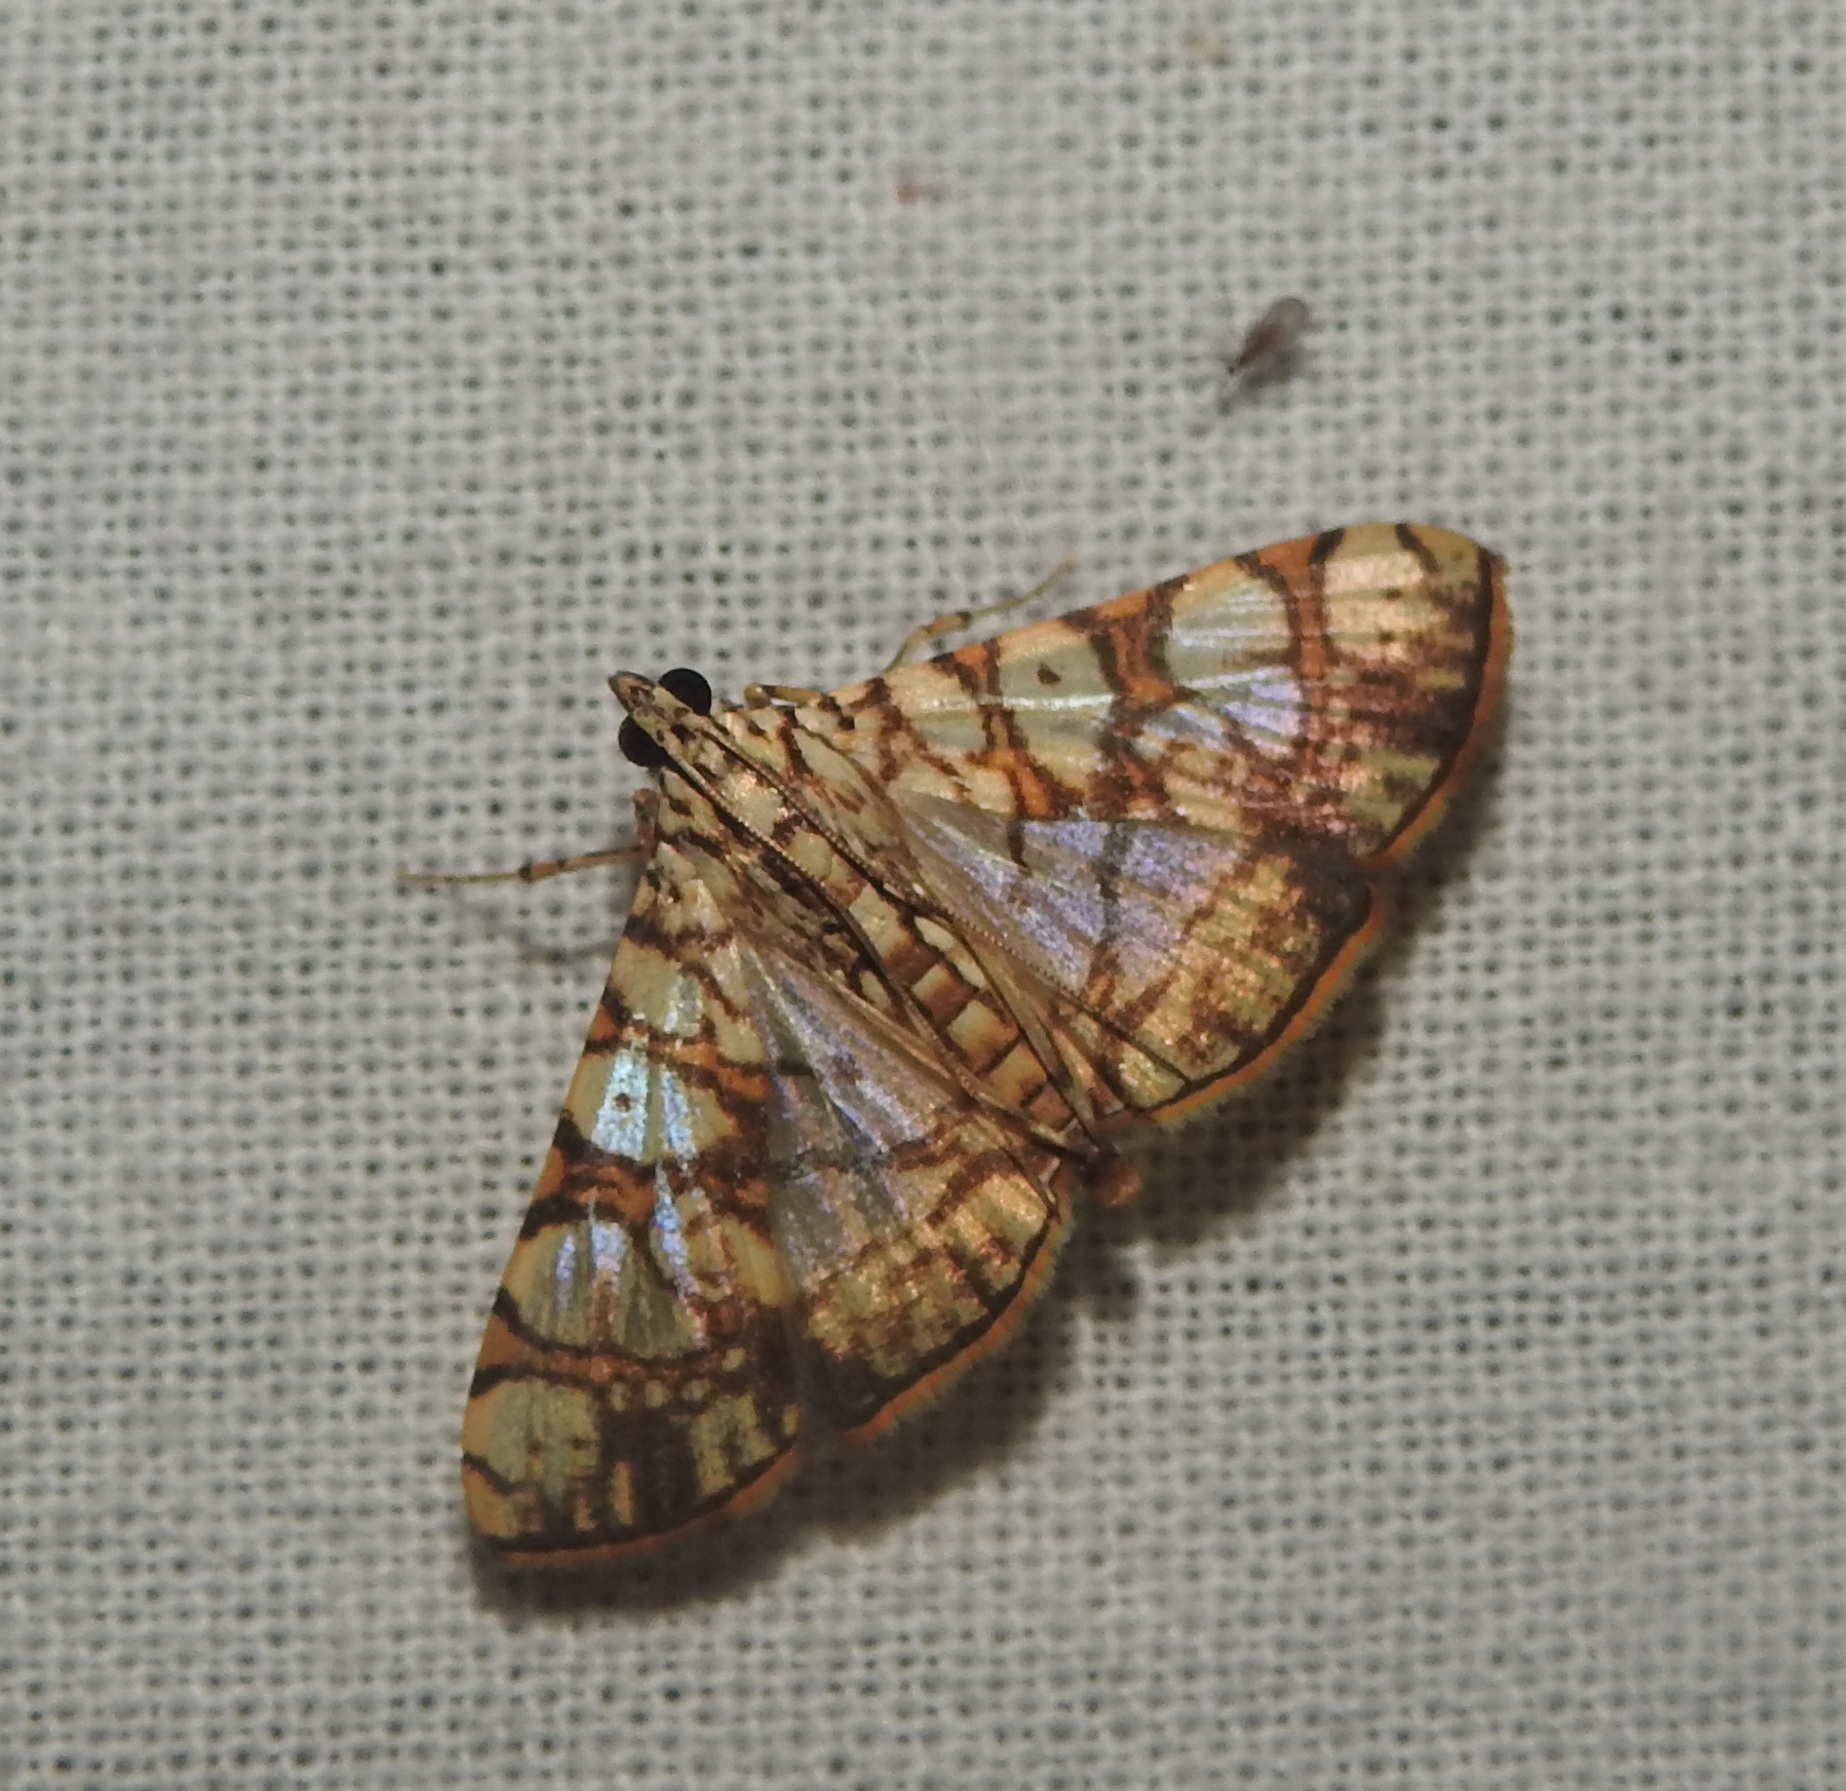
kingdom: Animalia
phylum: Arthropoda
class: Insecta
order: Lepidoptera
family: Crambidae
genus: Glyphodes
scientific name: Glyphodes caesalis
